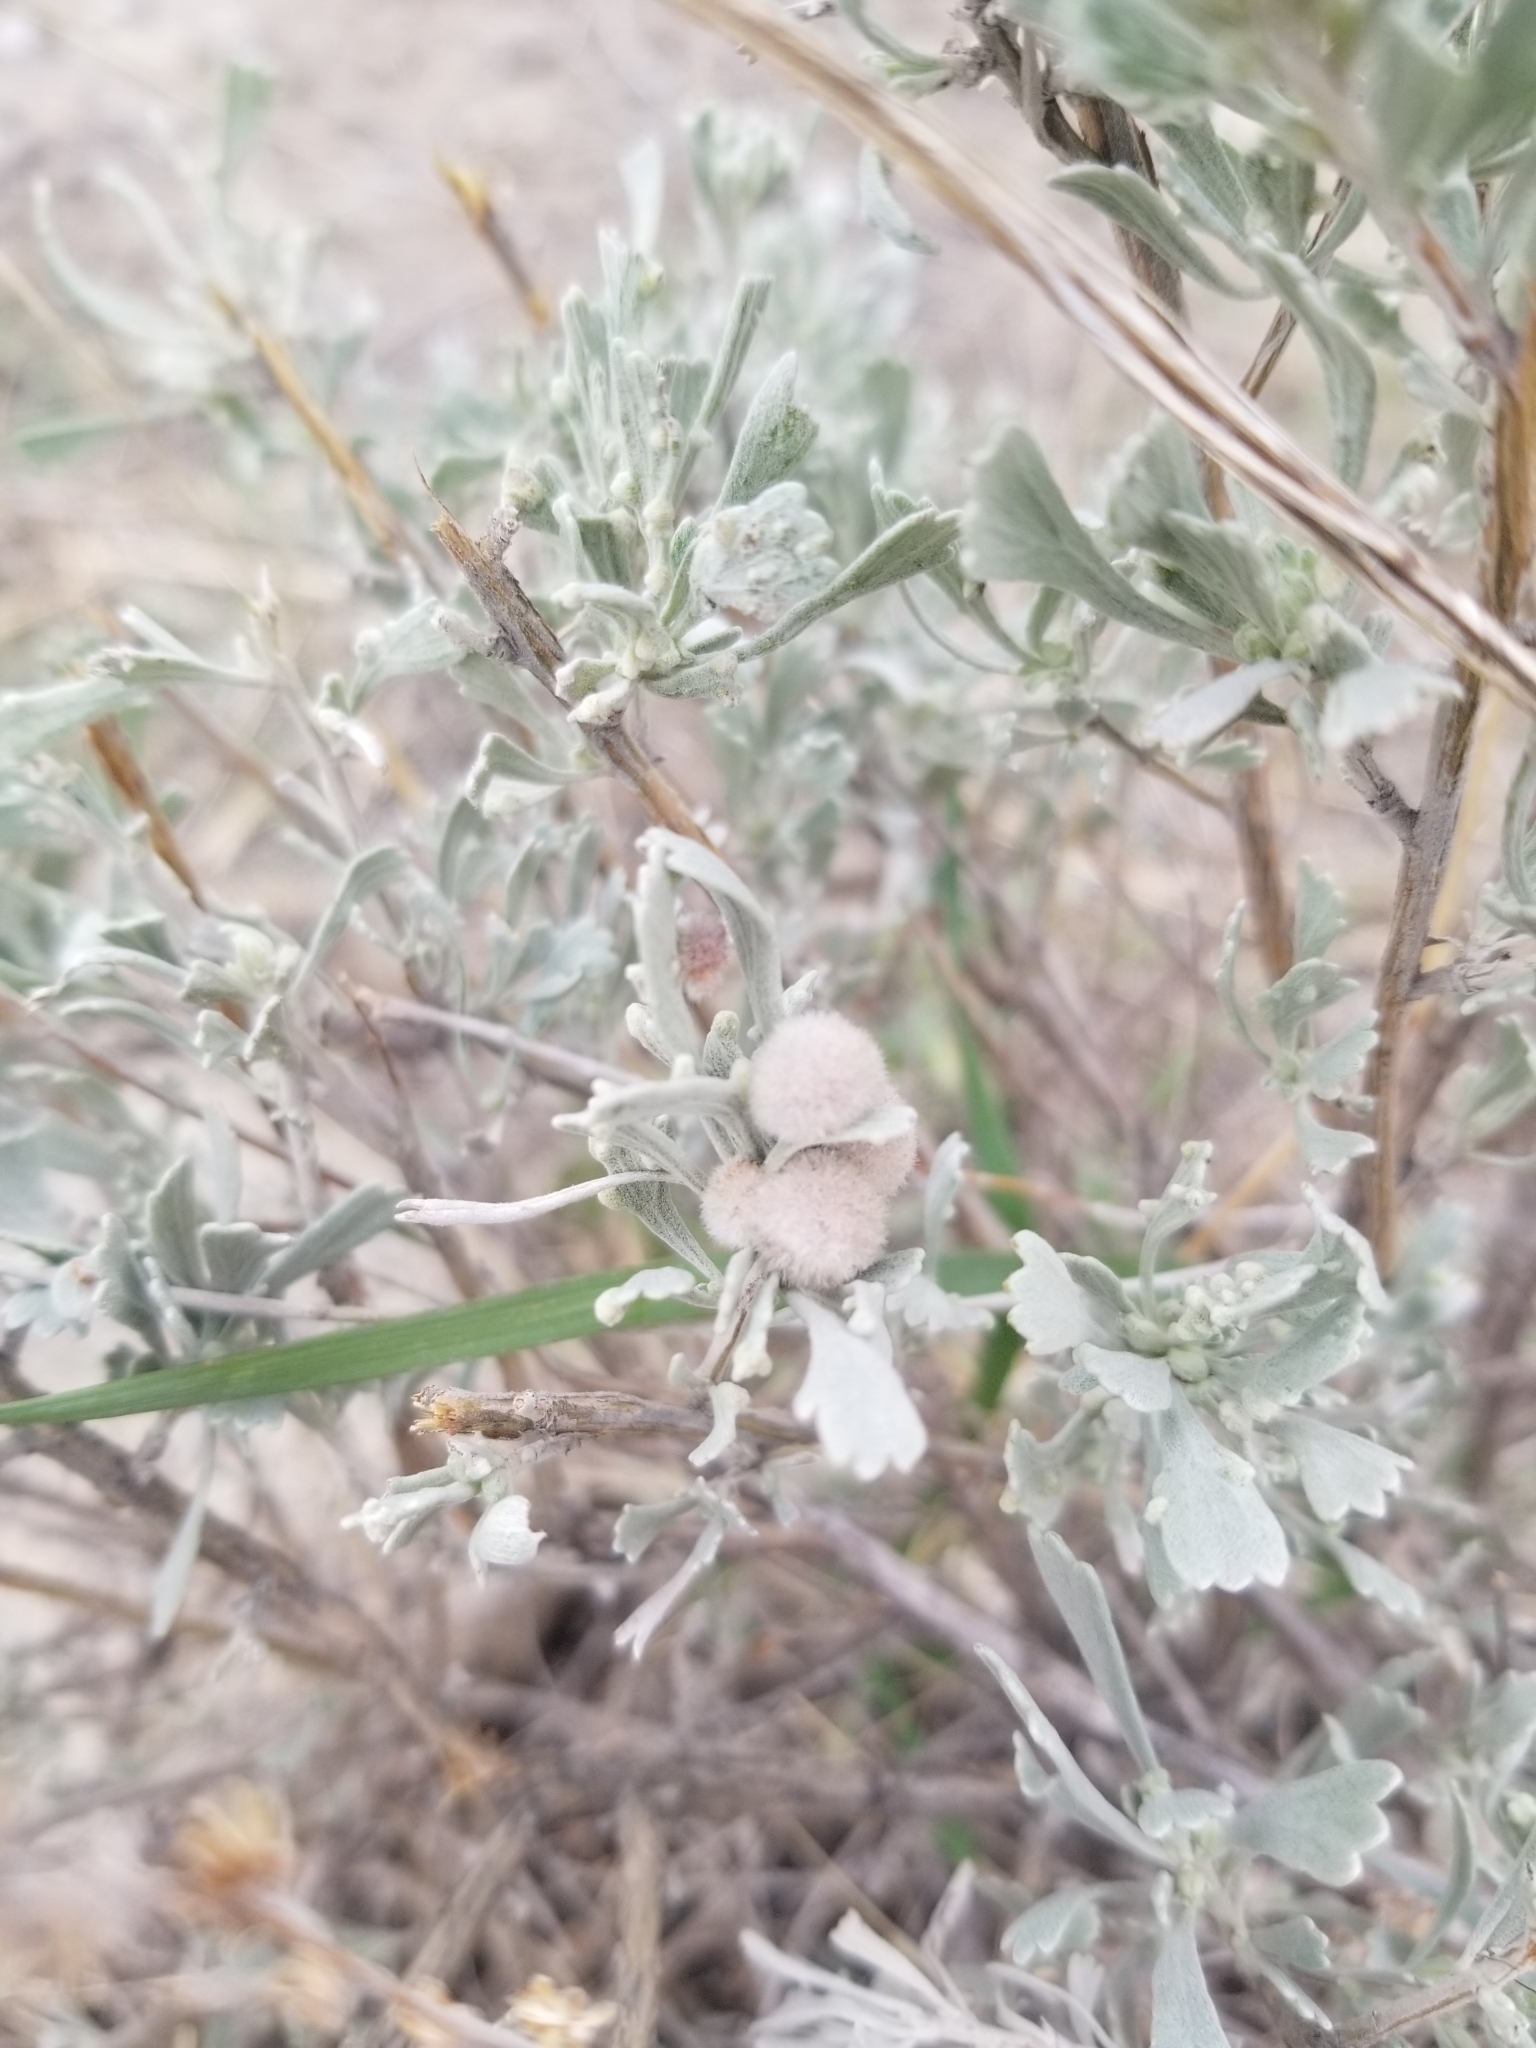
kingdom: Animalia
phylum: Arthropoda
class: Insecta
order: Diptera
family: Cecidomyiidae
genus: Rhopalomyia
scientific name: Rhopalomyia hirtipomum
